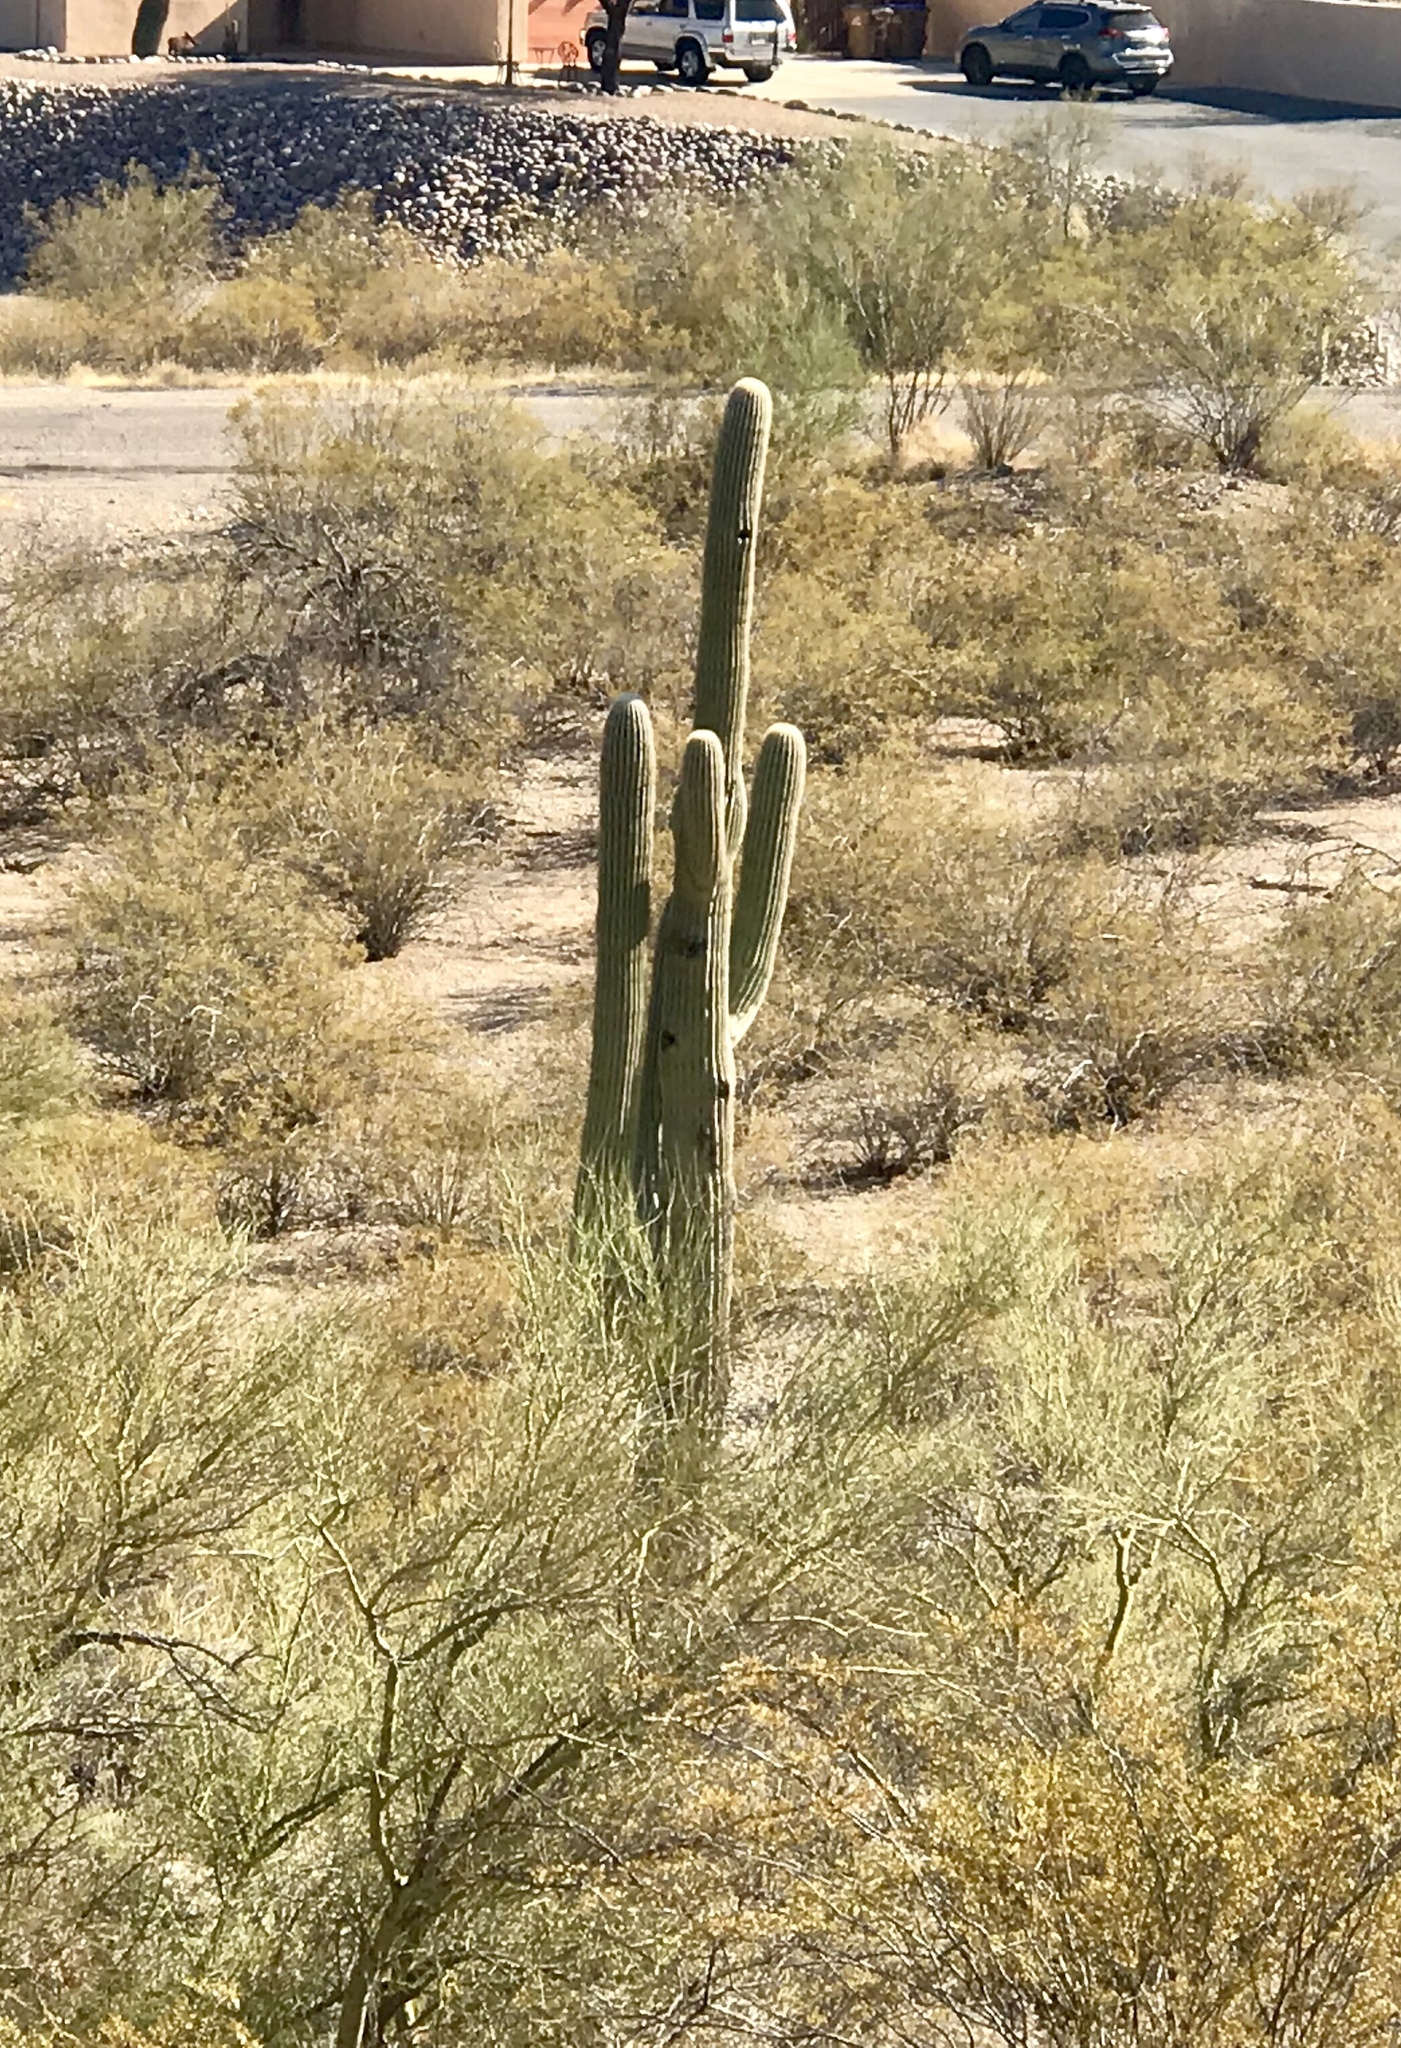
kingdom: Plantae
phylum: Tracheophyta
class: Magnoliopsida
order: Caryophyllales
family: Cactaceae
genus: Carnegiea
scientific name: Carnegiea gigantea
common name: Saguaro
